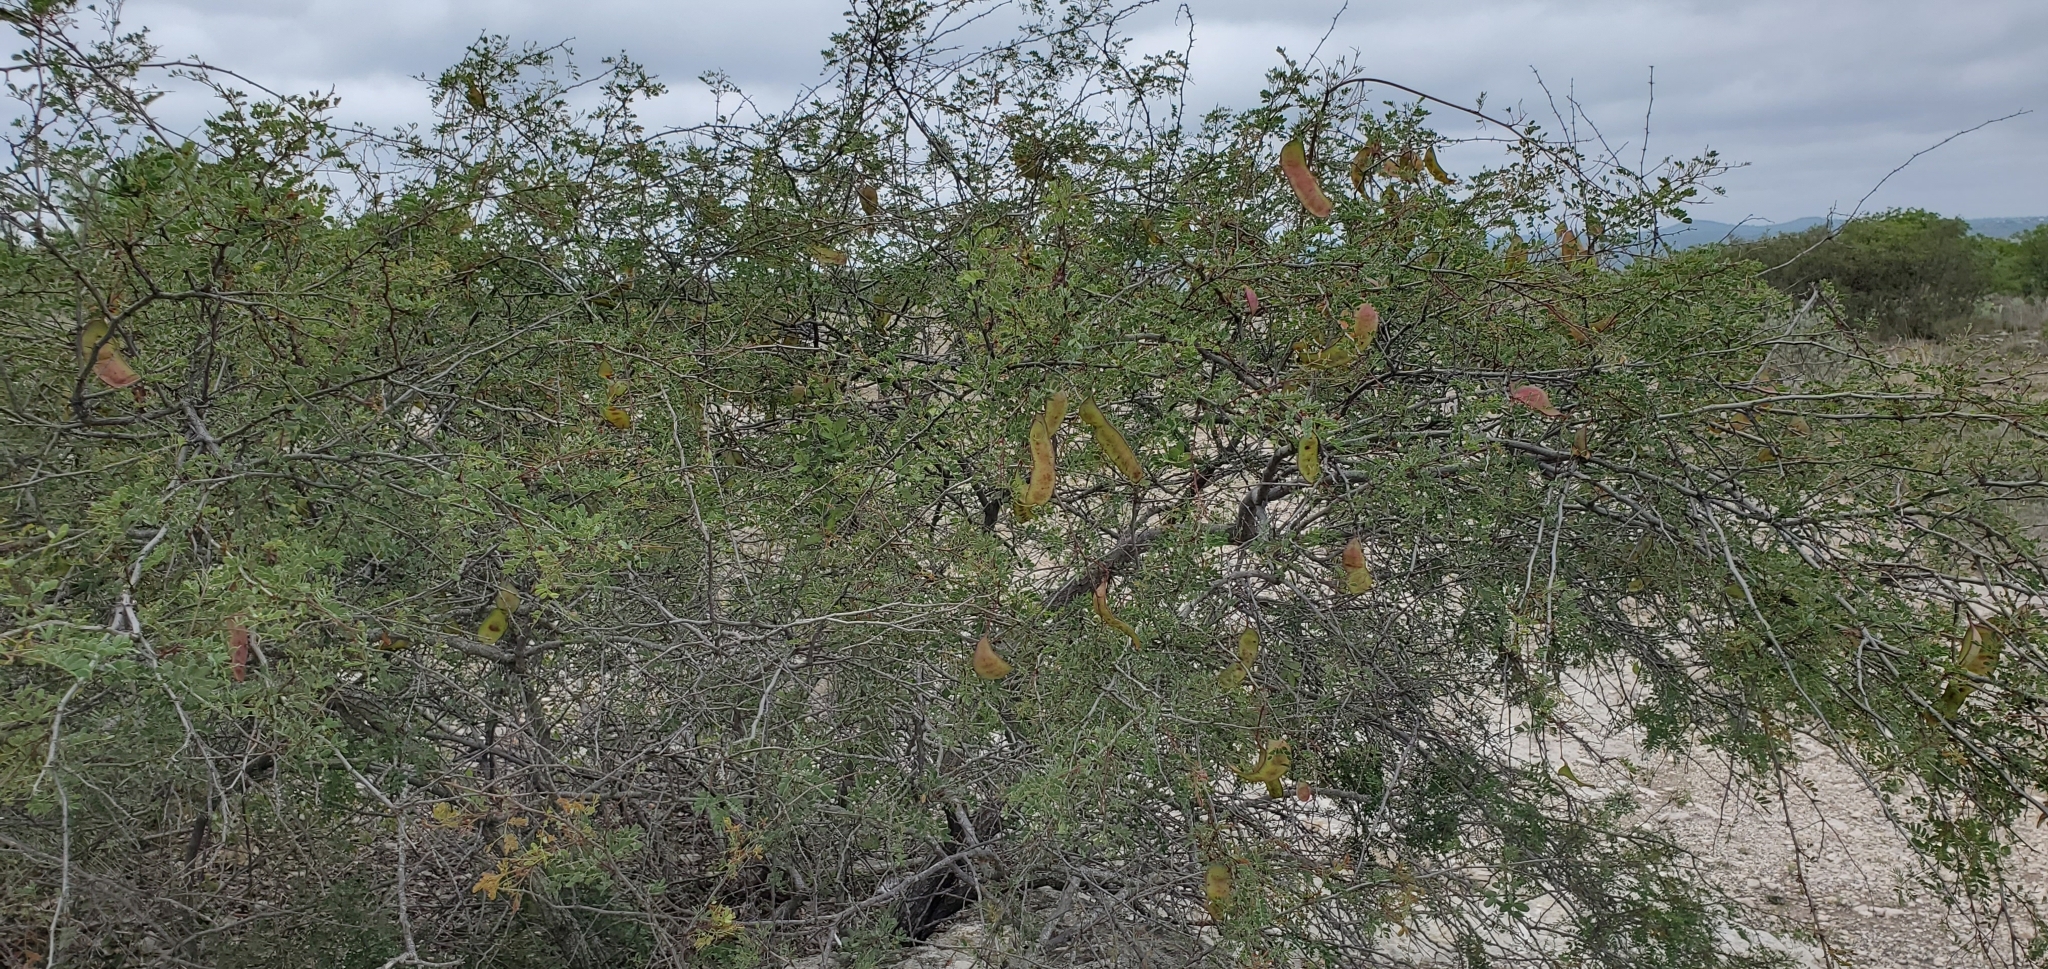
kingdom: Plantae
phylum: Tracheophyta
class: Magnoliopsida
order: Fabales
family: Fabaceae
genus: Senegalia
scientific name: Senegalia roemeriana
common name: Roemer's acacia
